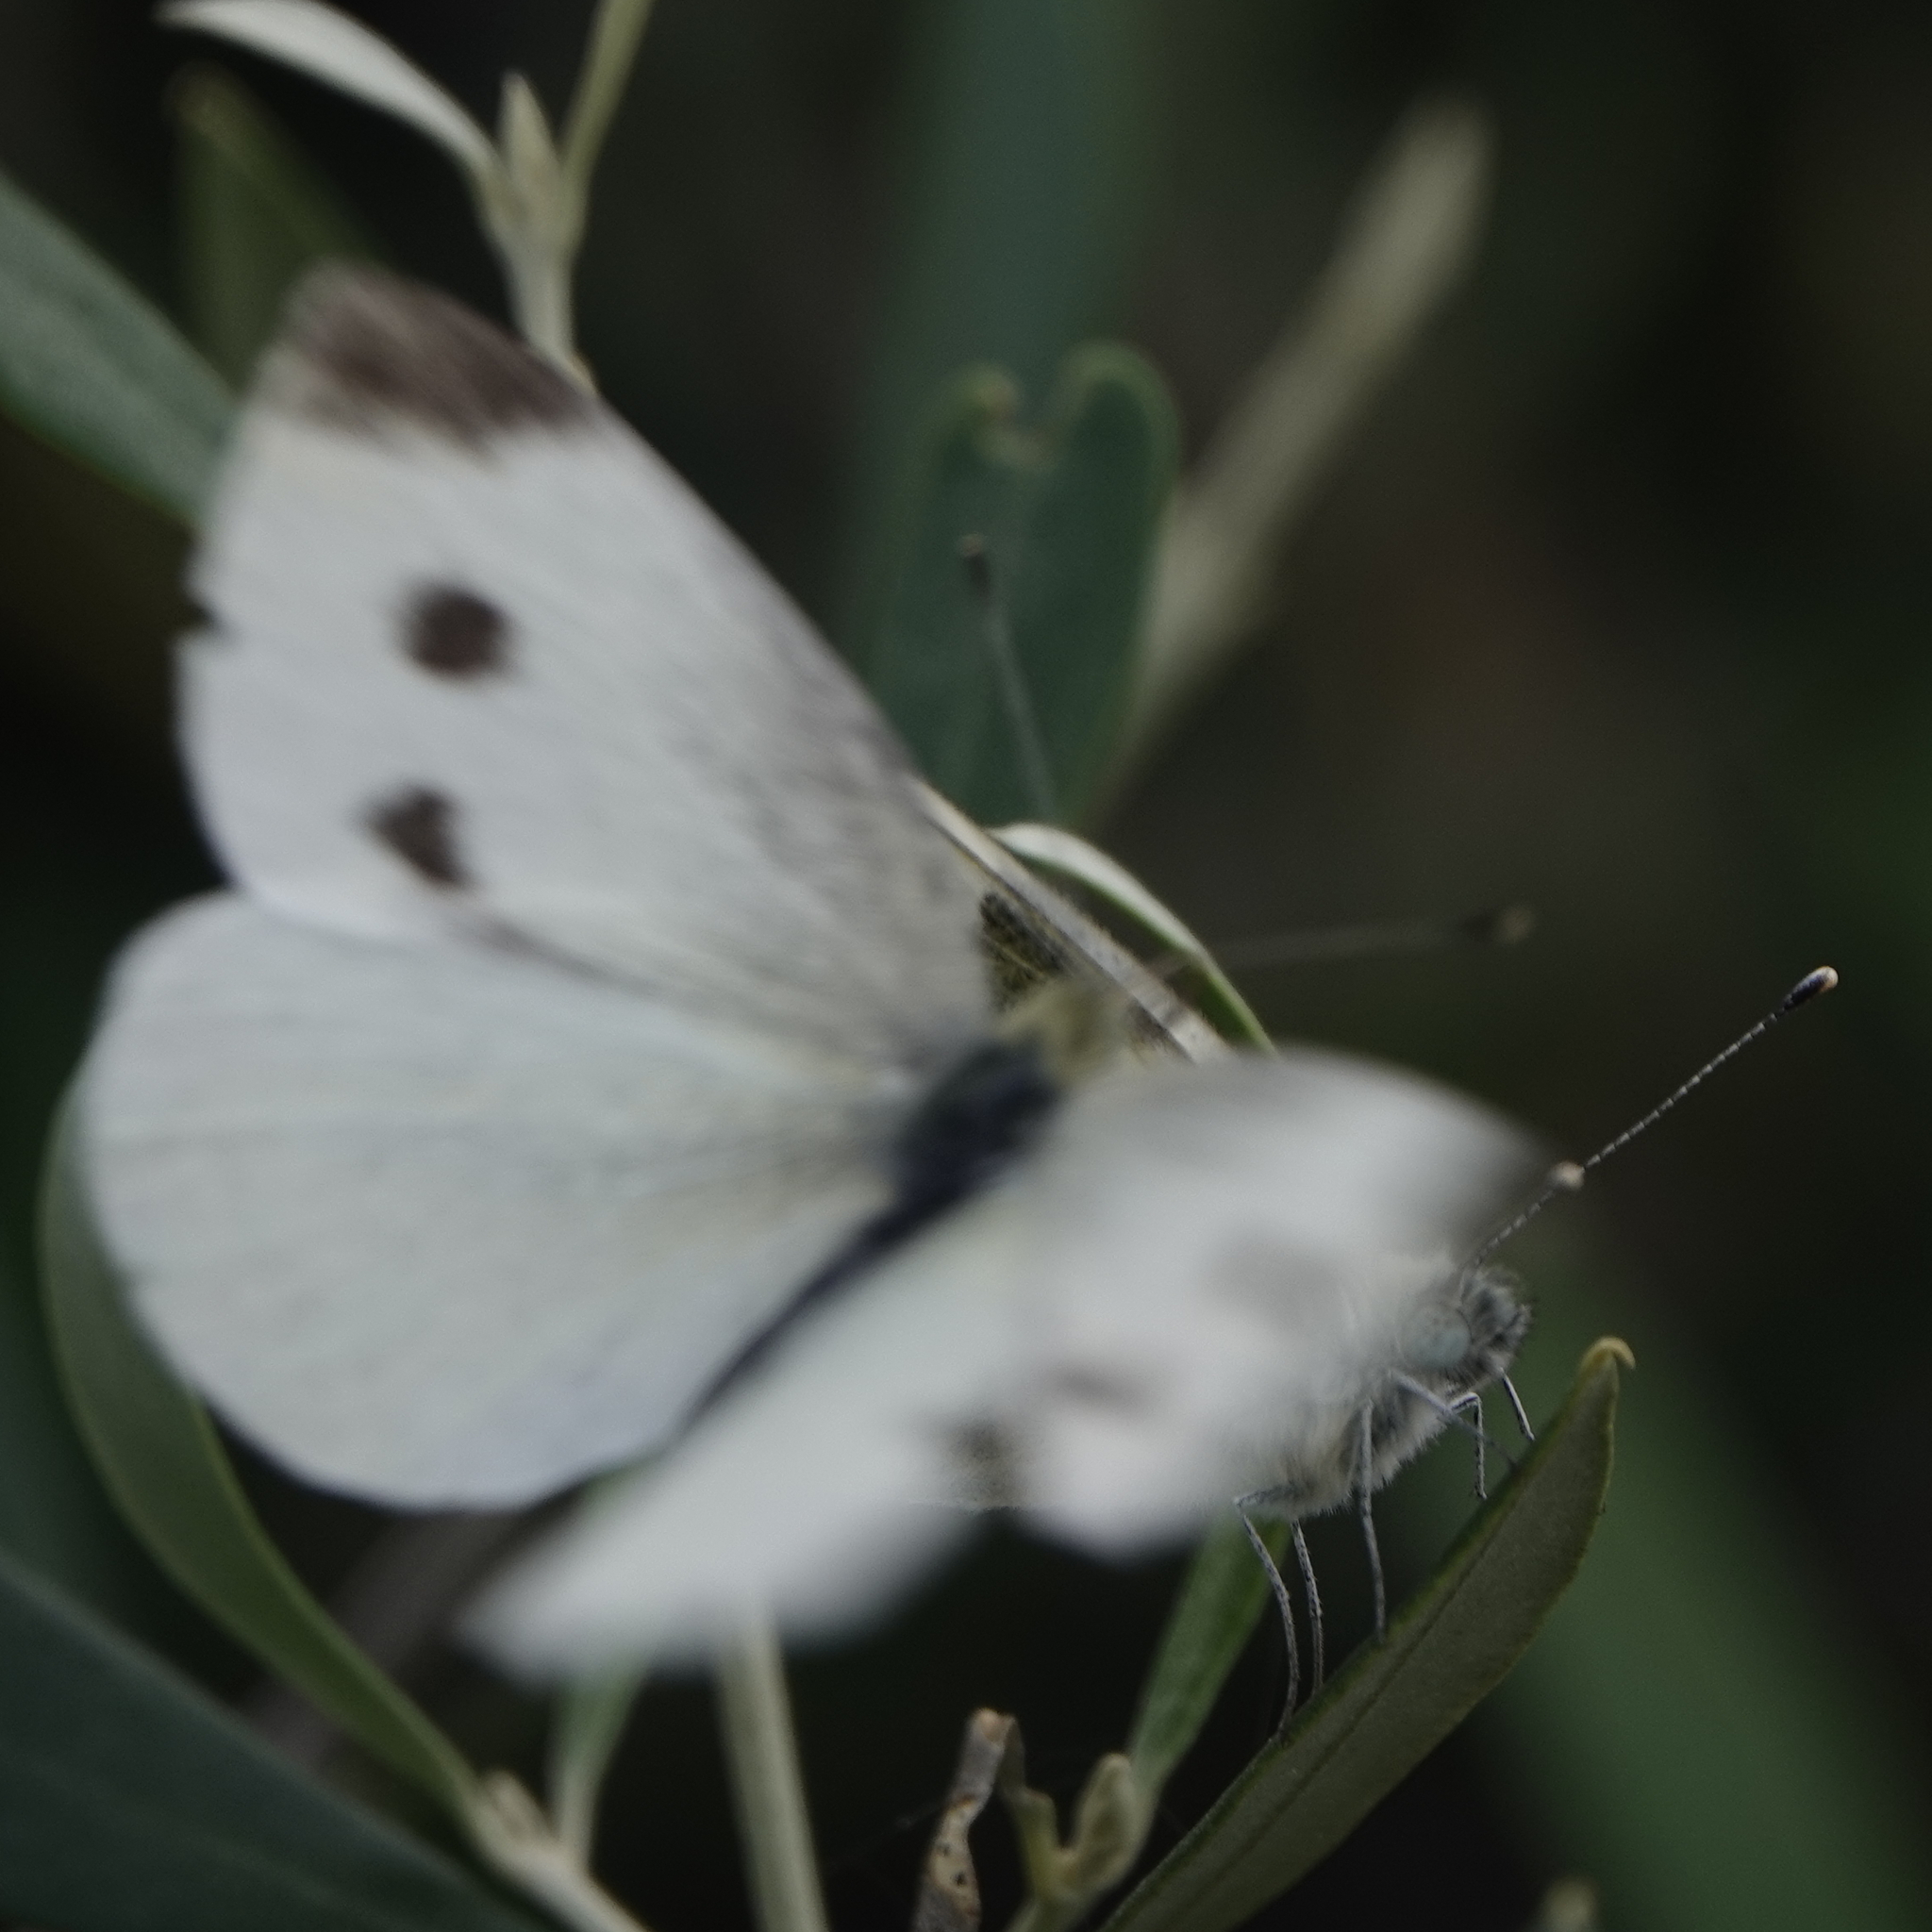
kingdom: Animalia
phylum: Arthropoda
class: Insecta
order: Lepidoptera
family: Pieridae
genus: Pontia
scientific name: Pontia edusa
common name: Eastern bath white
